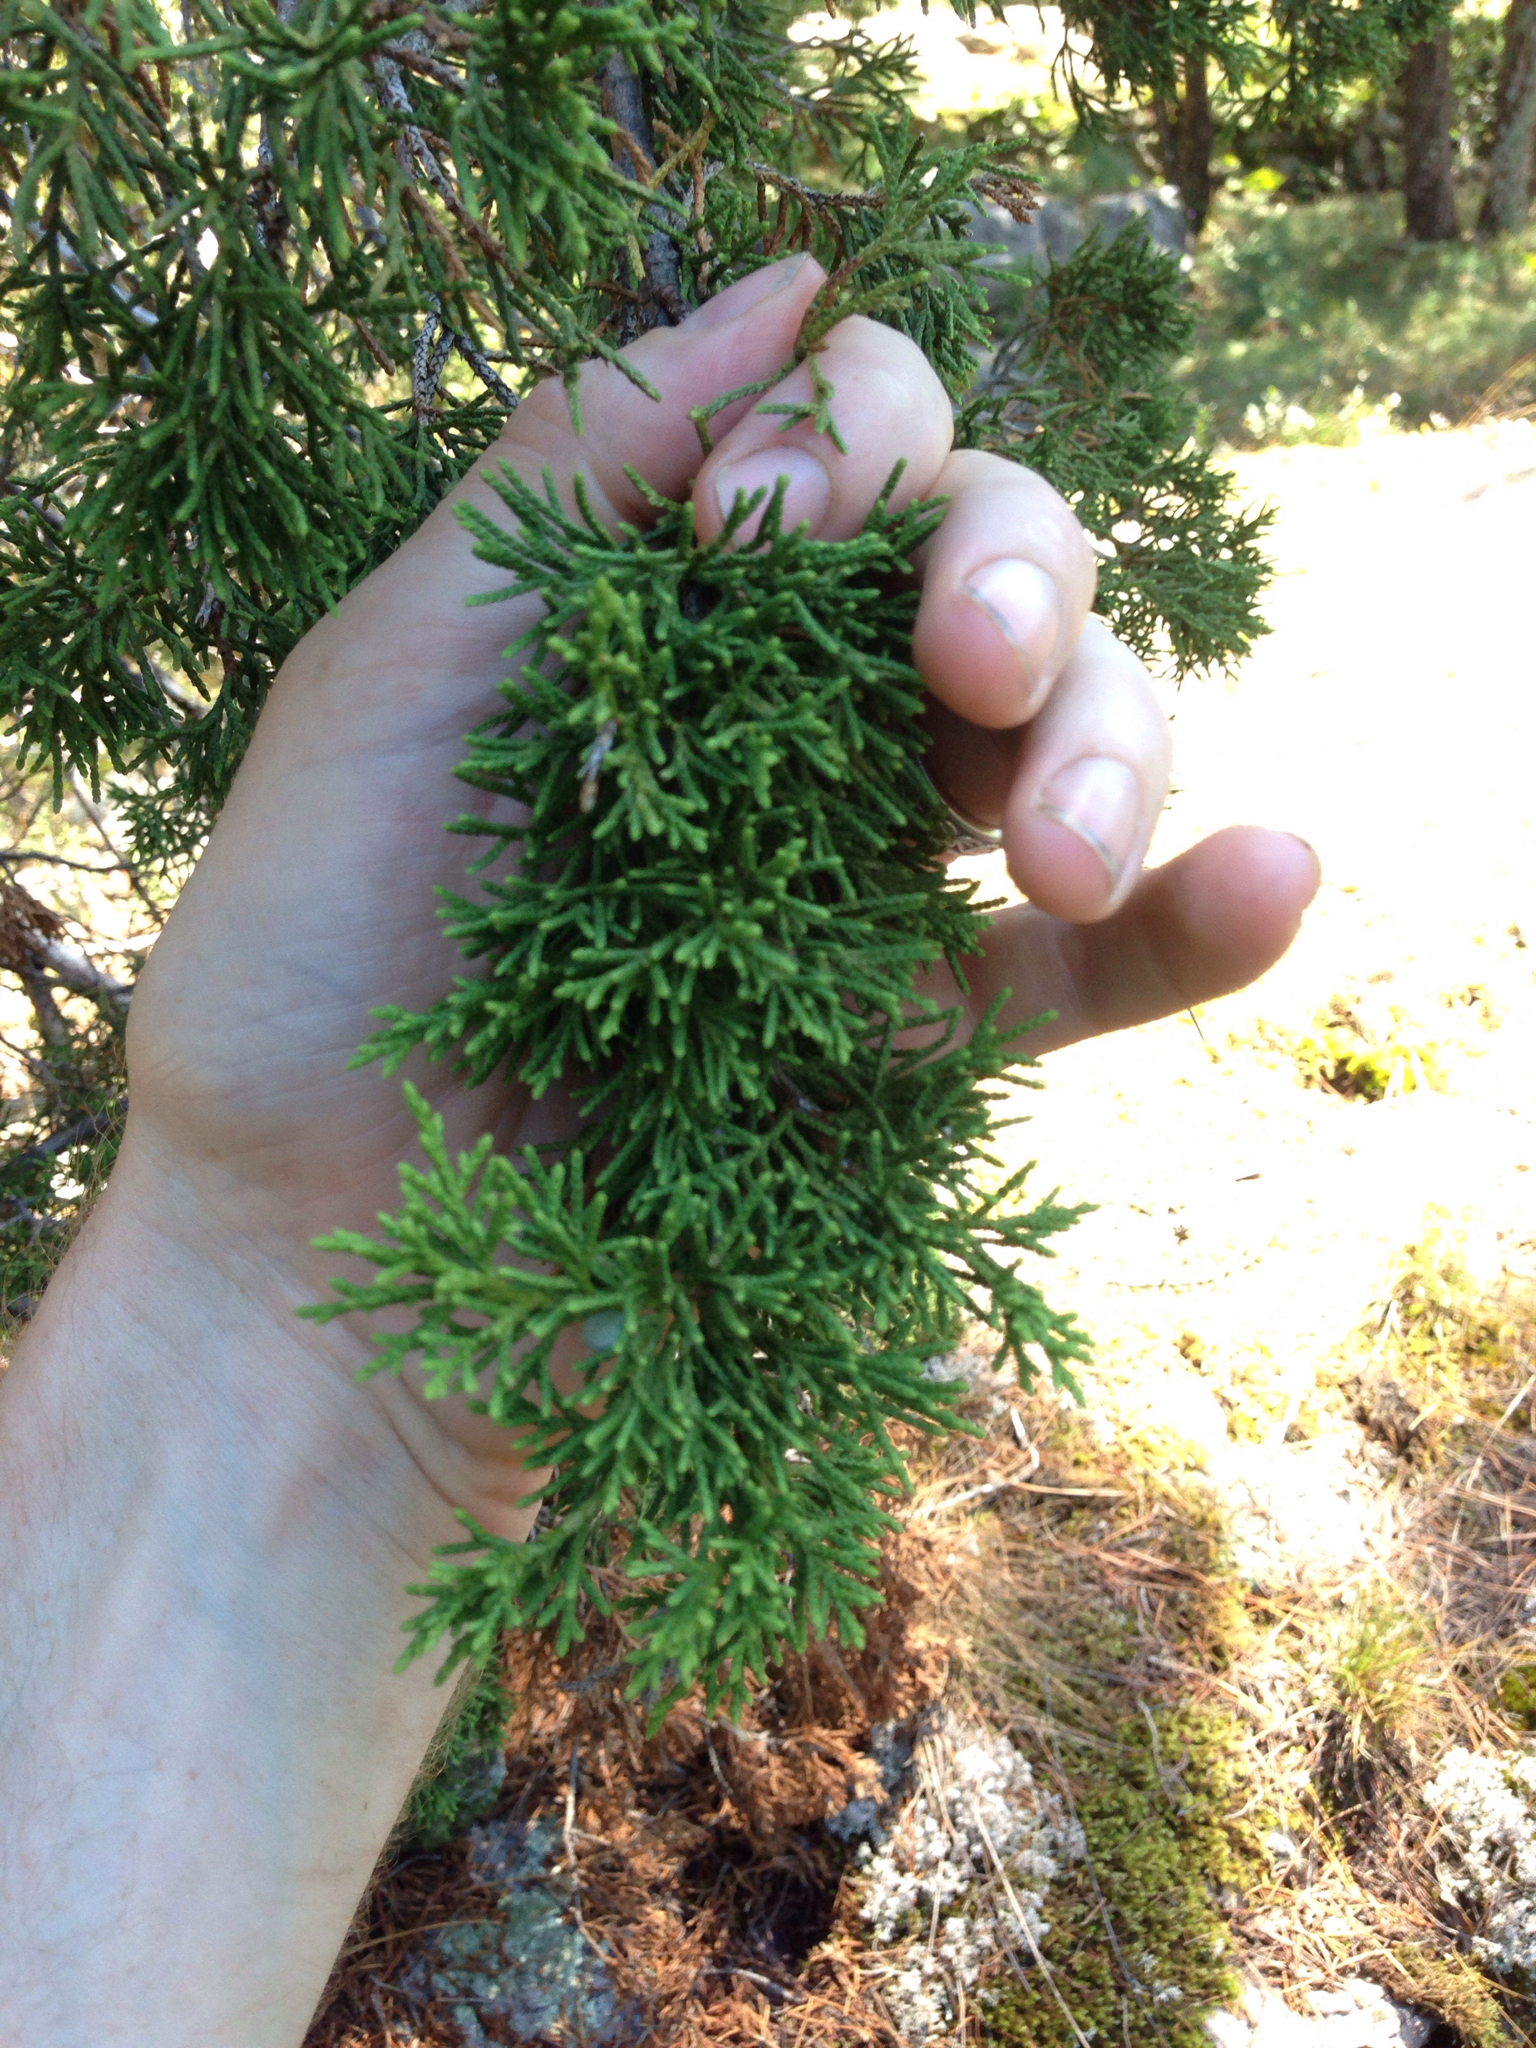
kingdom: Plantae
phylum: Tracheophyta
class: Pinopsida
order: Pinales
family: Cupressaceae
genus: Juniperus
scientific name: Juniperus virginiana
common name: Red juniper
